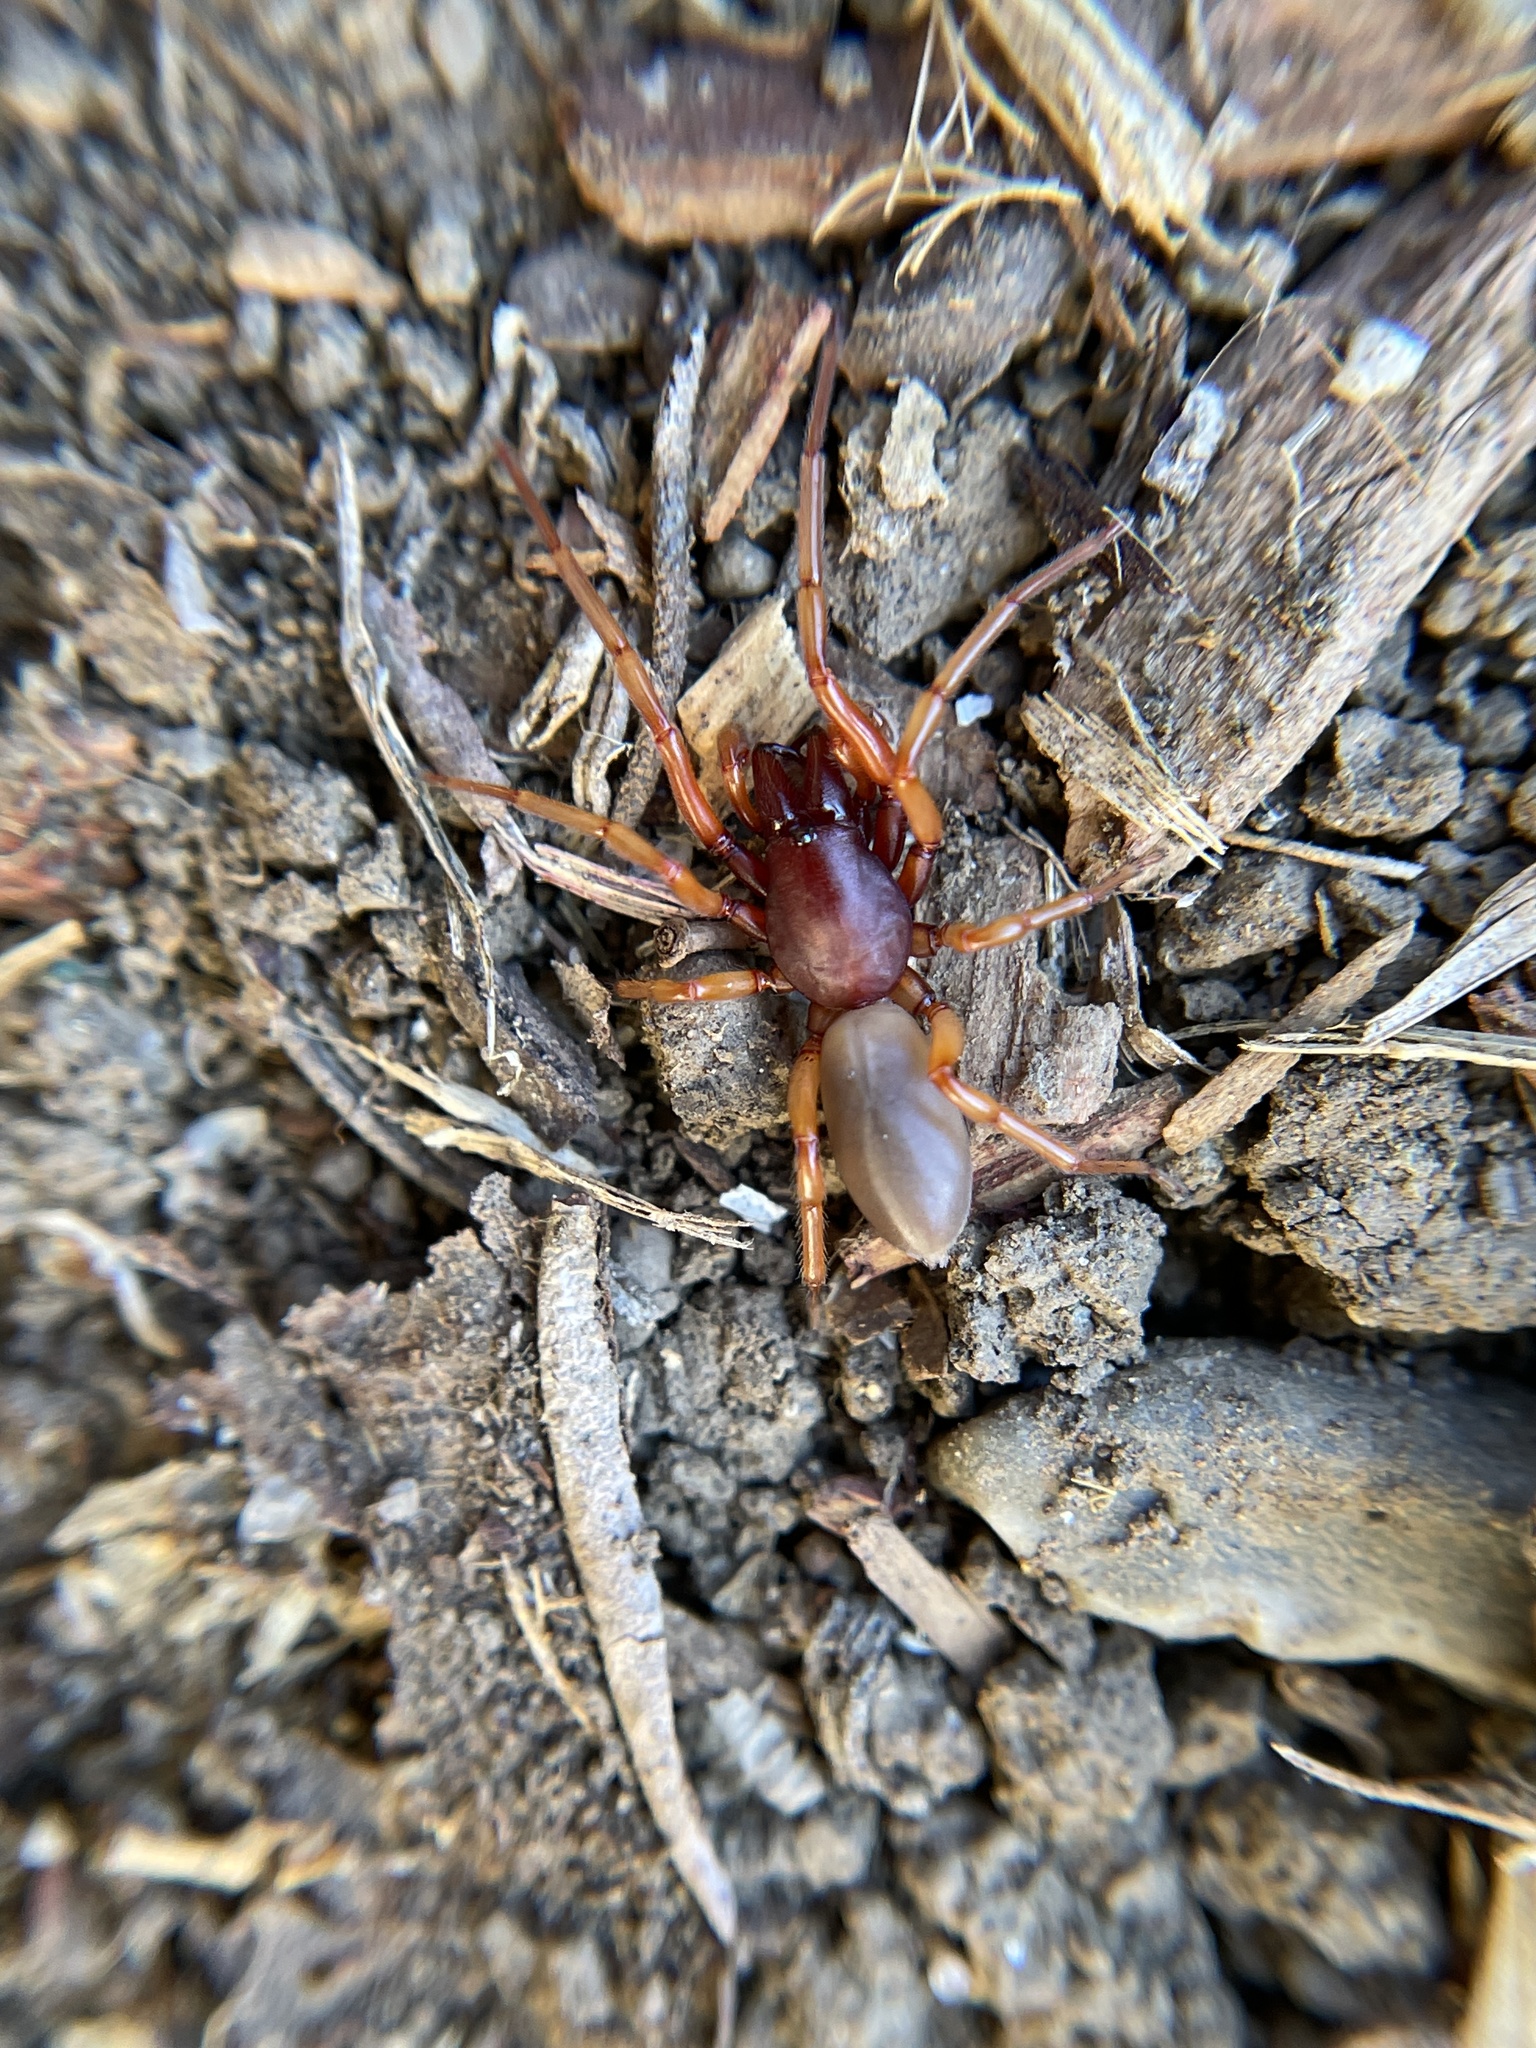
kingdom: Animalia
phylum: Arthropoda
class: Arachnida
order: Araneae
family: Dysderidae
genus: Dysdera
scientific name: Dysdera crocata
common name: Woodlouse spider
